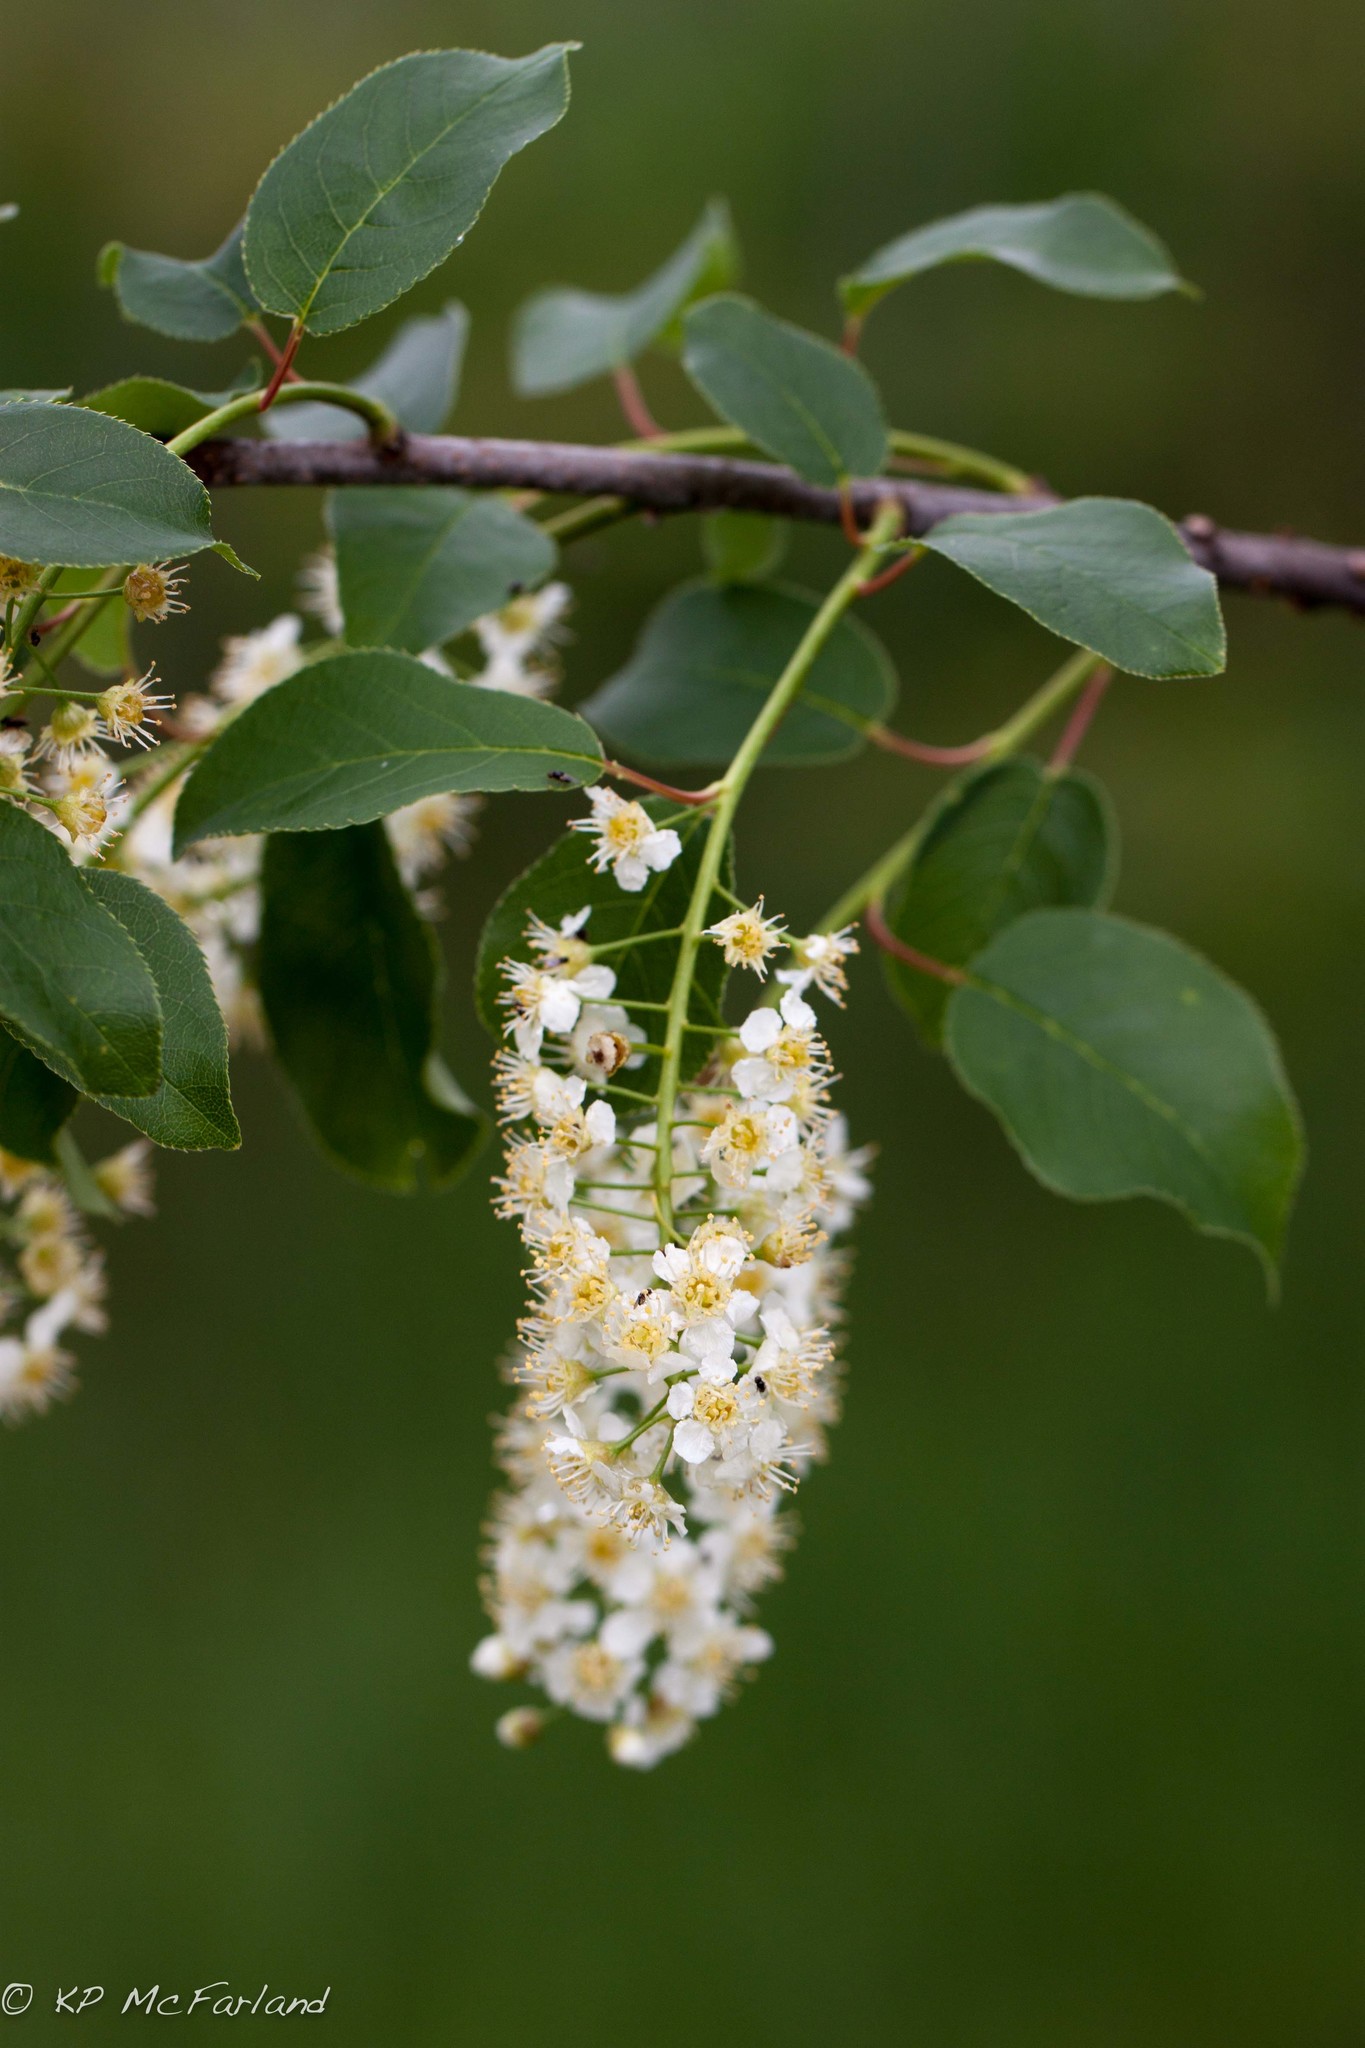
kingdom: Plantae
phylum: Tracheophyta
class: Magnoliopsida
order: Rosales
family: Rosaceae
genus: Prunus
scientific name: Prunus serotina
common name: Black cherry
